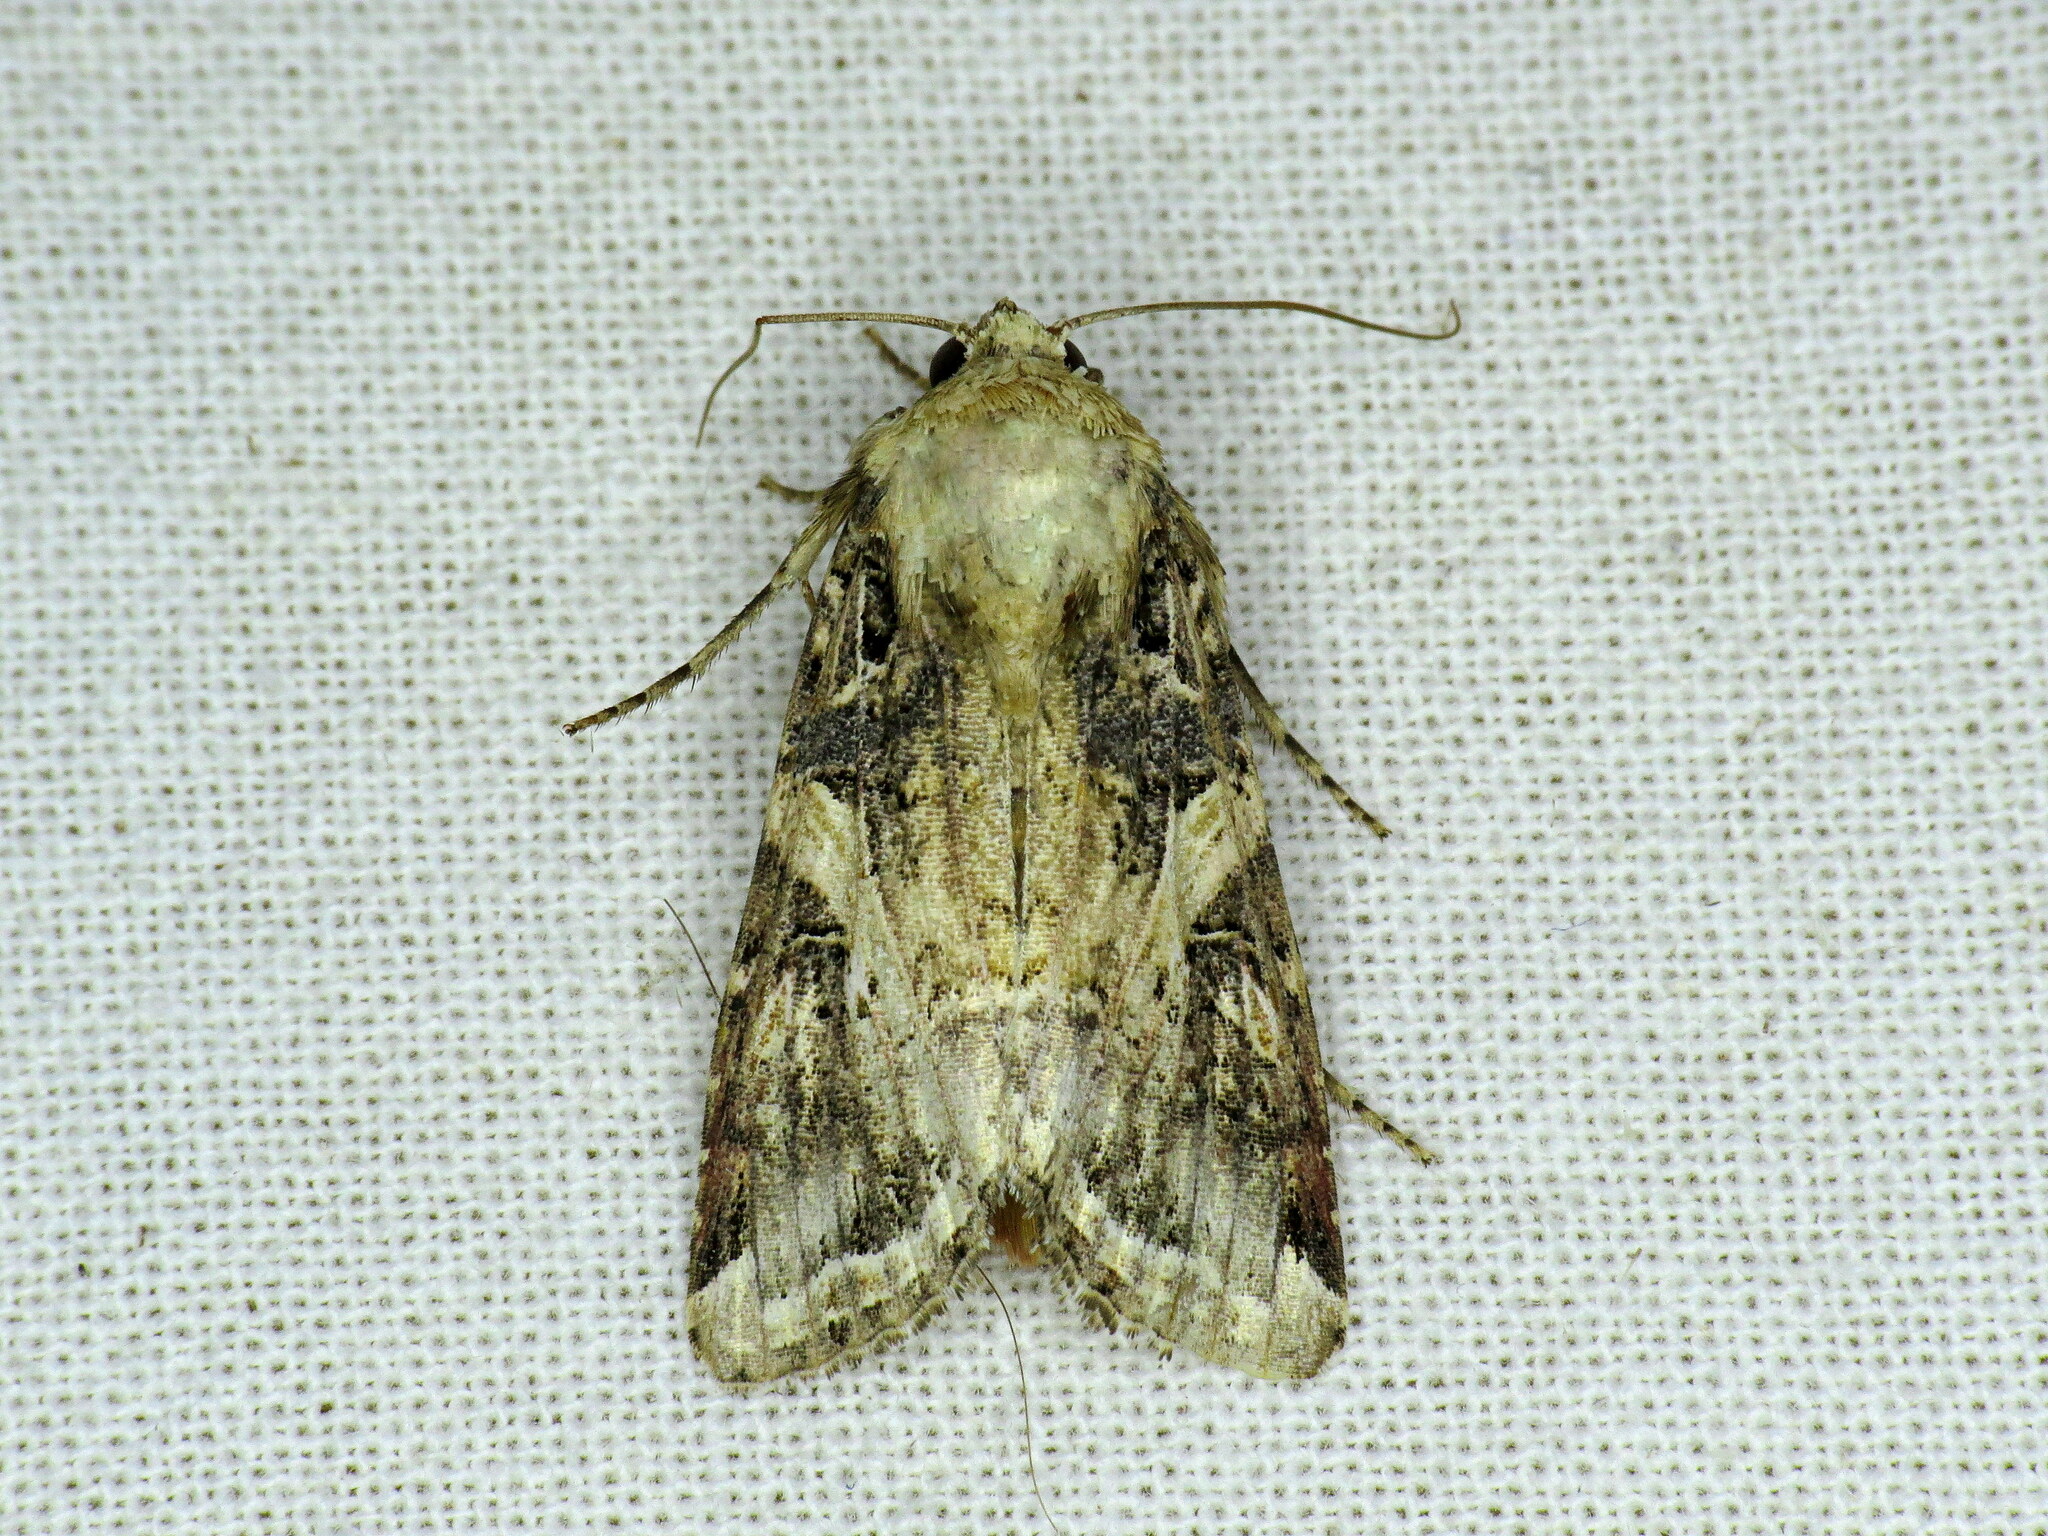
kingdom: Animalia
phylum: Arthropoda
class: Insecta
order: Lepidoptera
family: Noctuidae
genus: Spodoptera
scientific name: Spodoptera ornithogalli
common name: Yellow-striped armyworm
